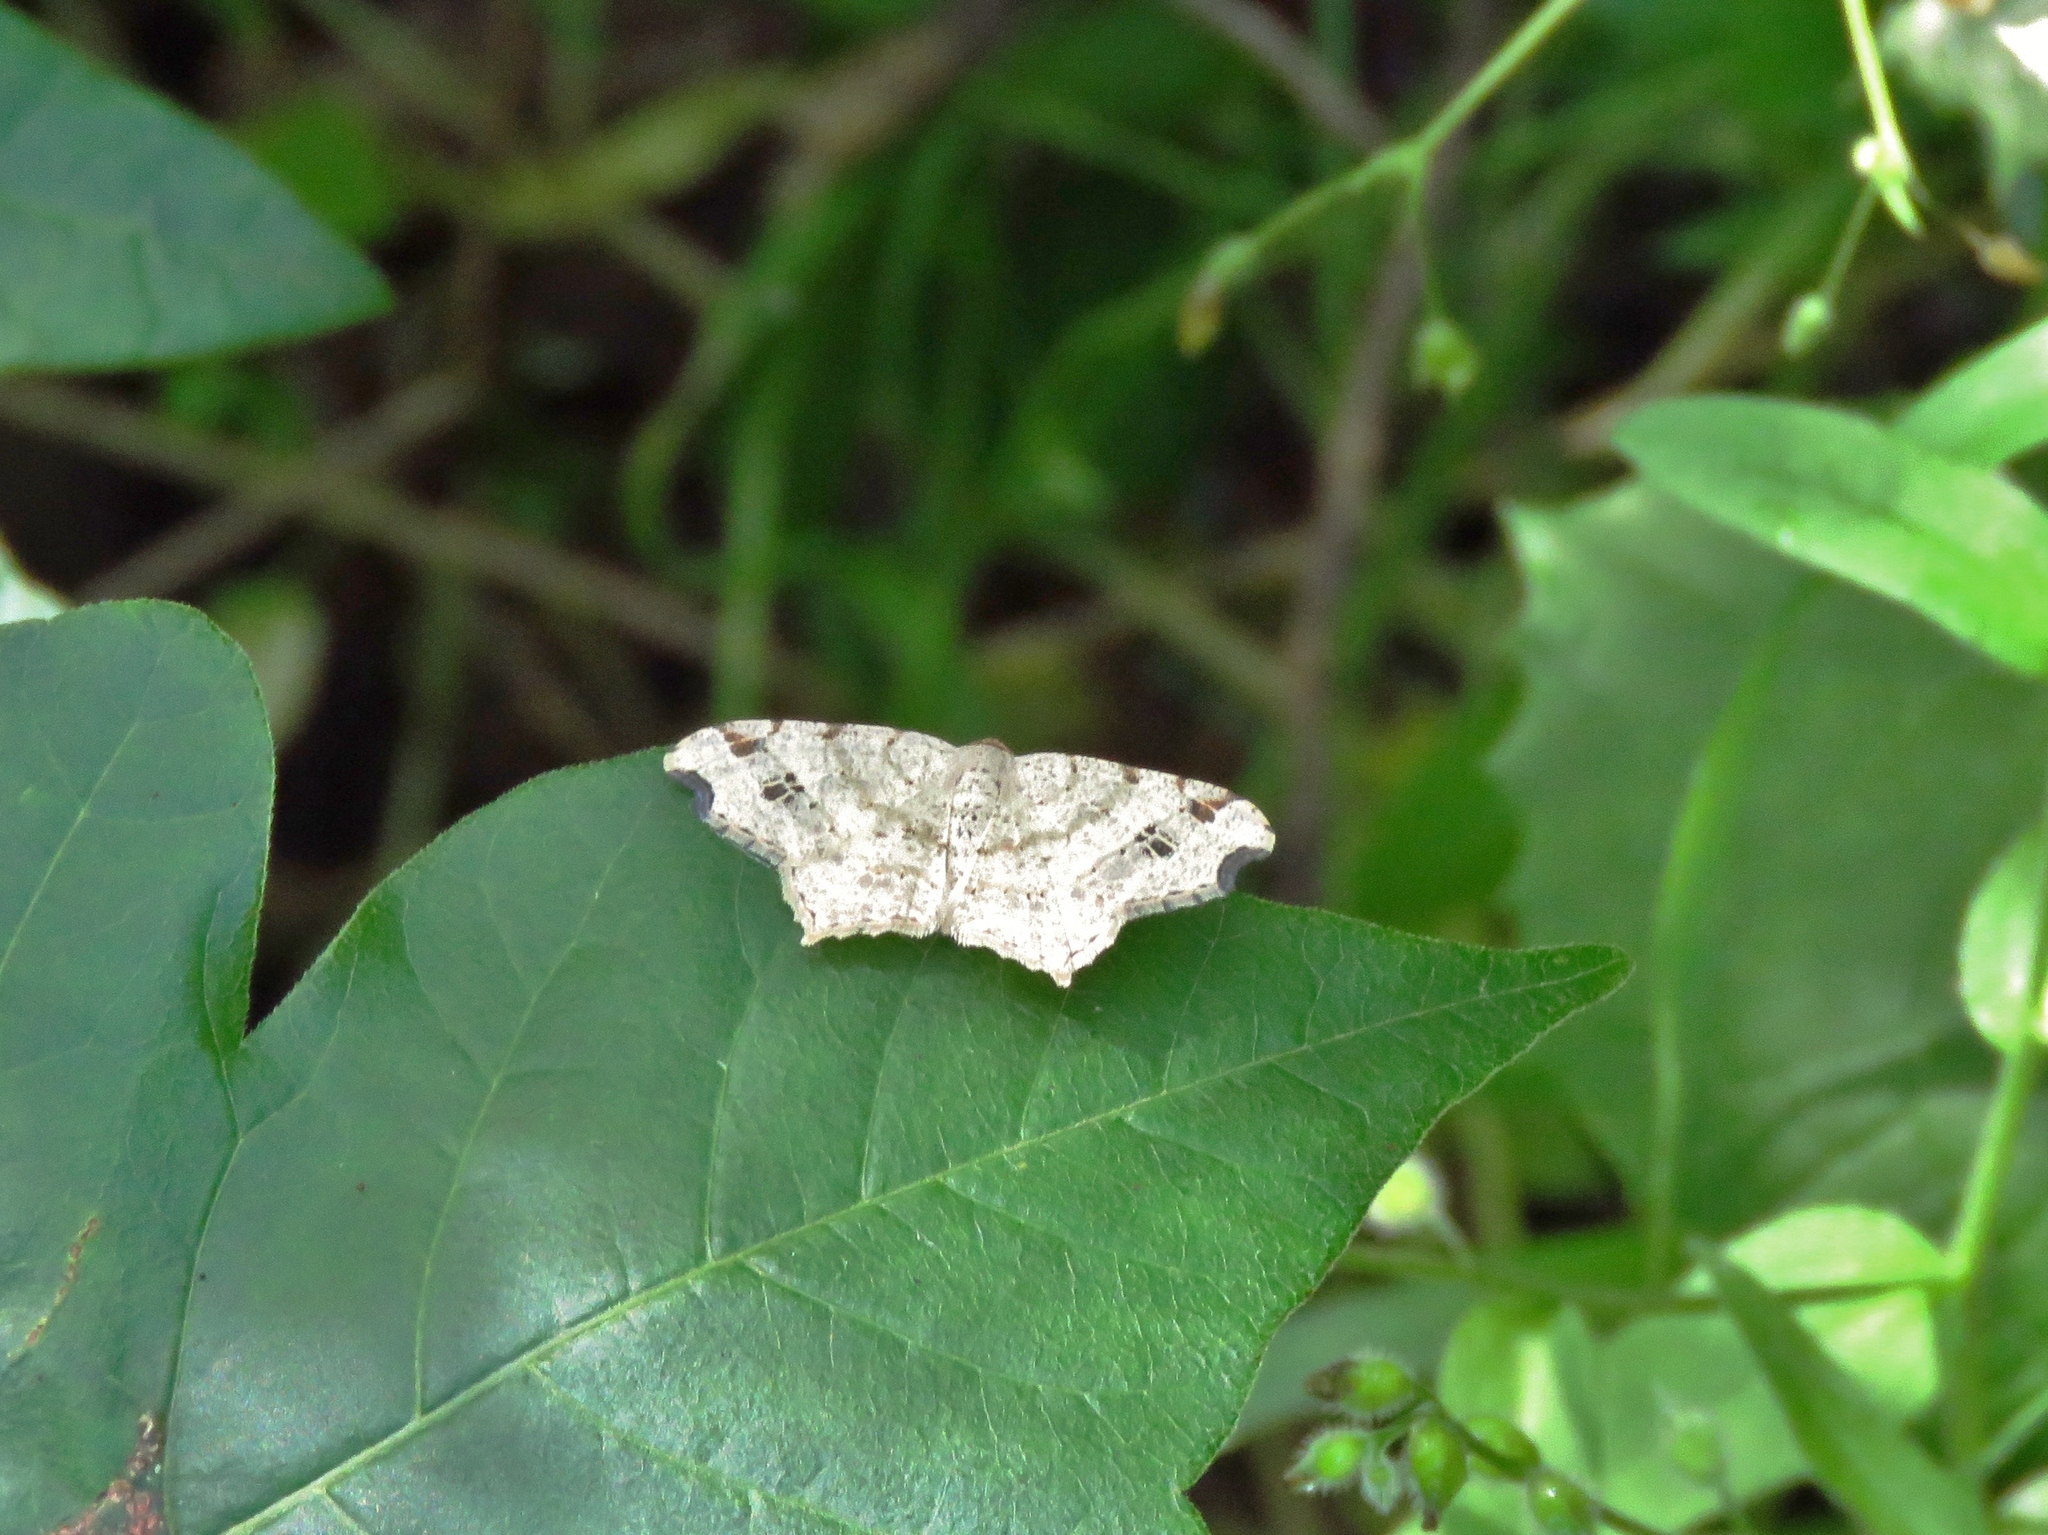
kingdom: Animalia
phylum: Arthropoda
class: Insecta
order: Lepidoptera
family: Geometridae
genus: Macaria
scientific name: Macaria aemulataria
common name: Common angle
